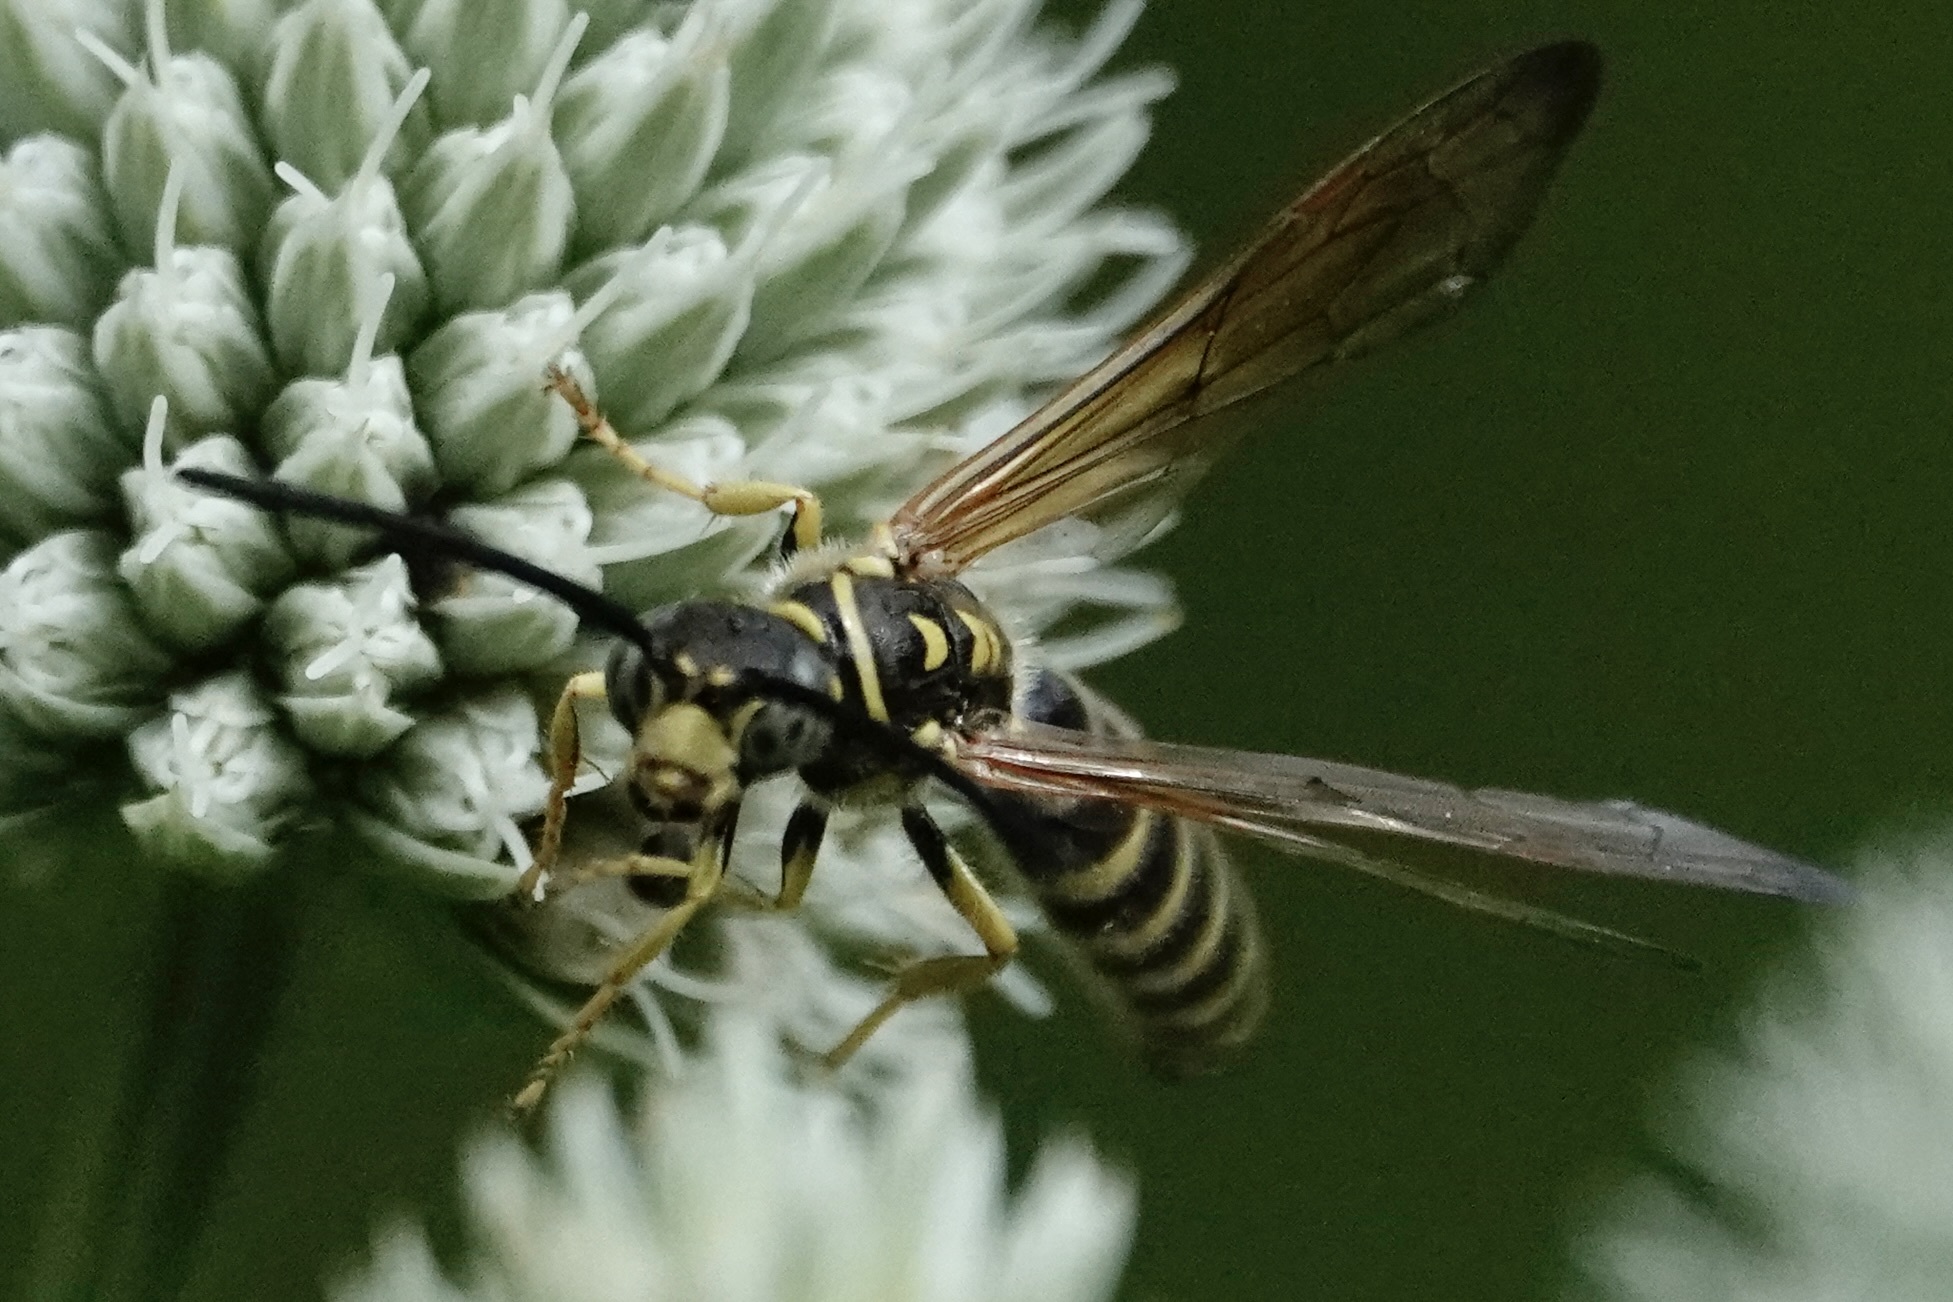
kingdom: Animalia
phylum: Arthropoda
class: Insecta
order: Hymenoptera
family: Tiphiidae
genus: Myzinum
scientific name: Myzinum quinquecinctum
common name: Five-banded thynnid wasp
